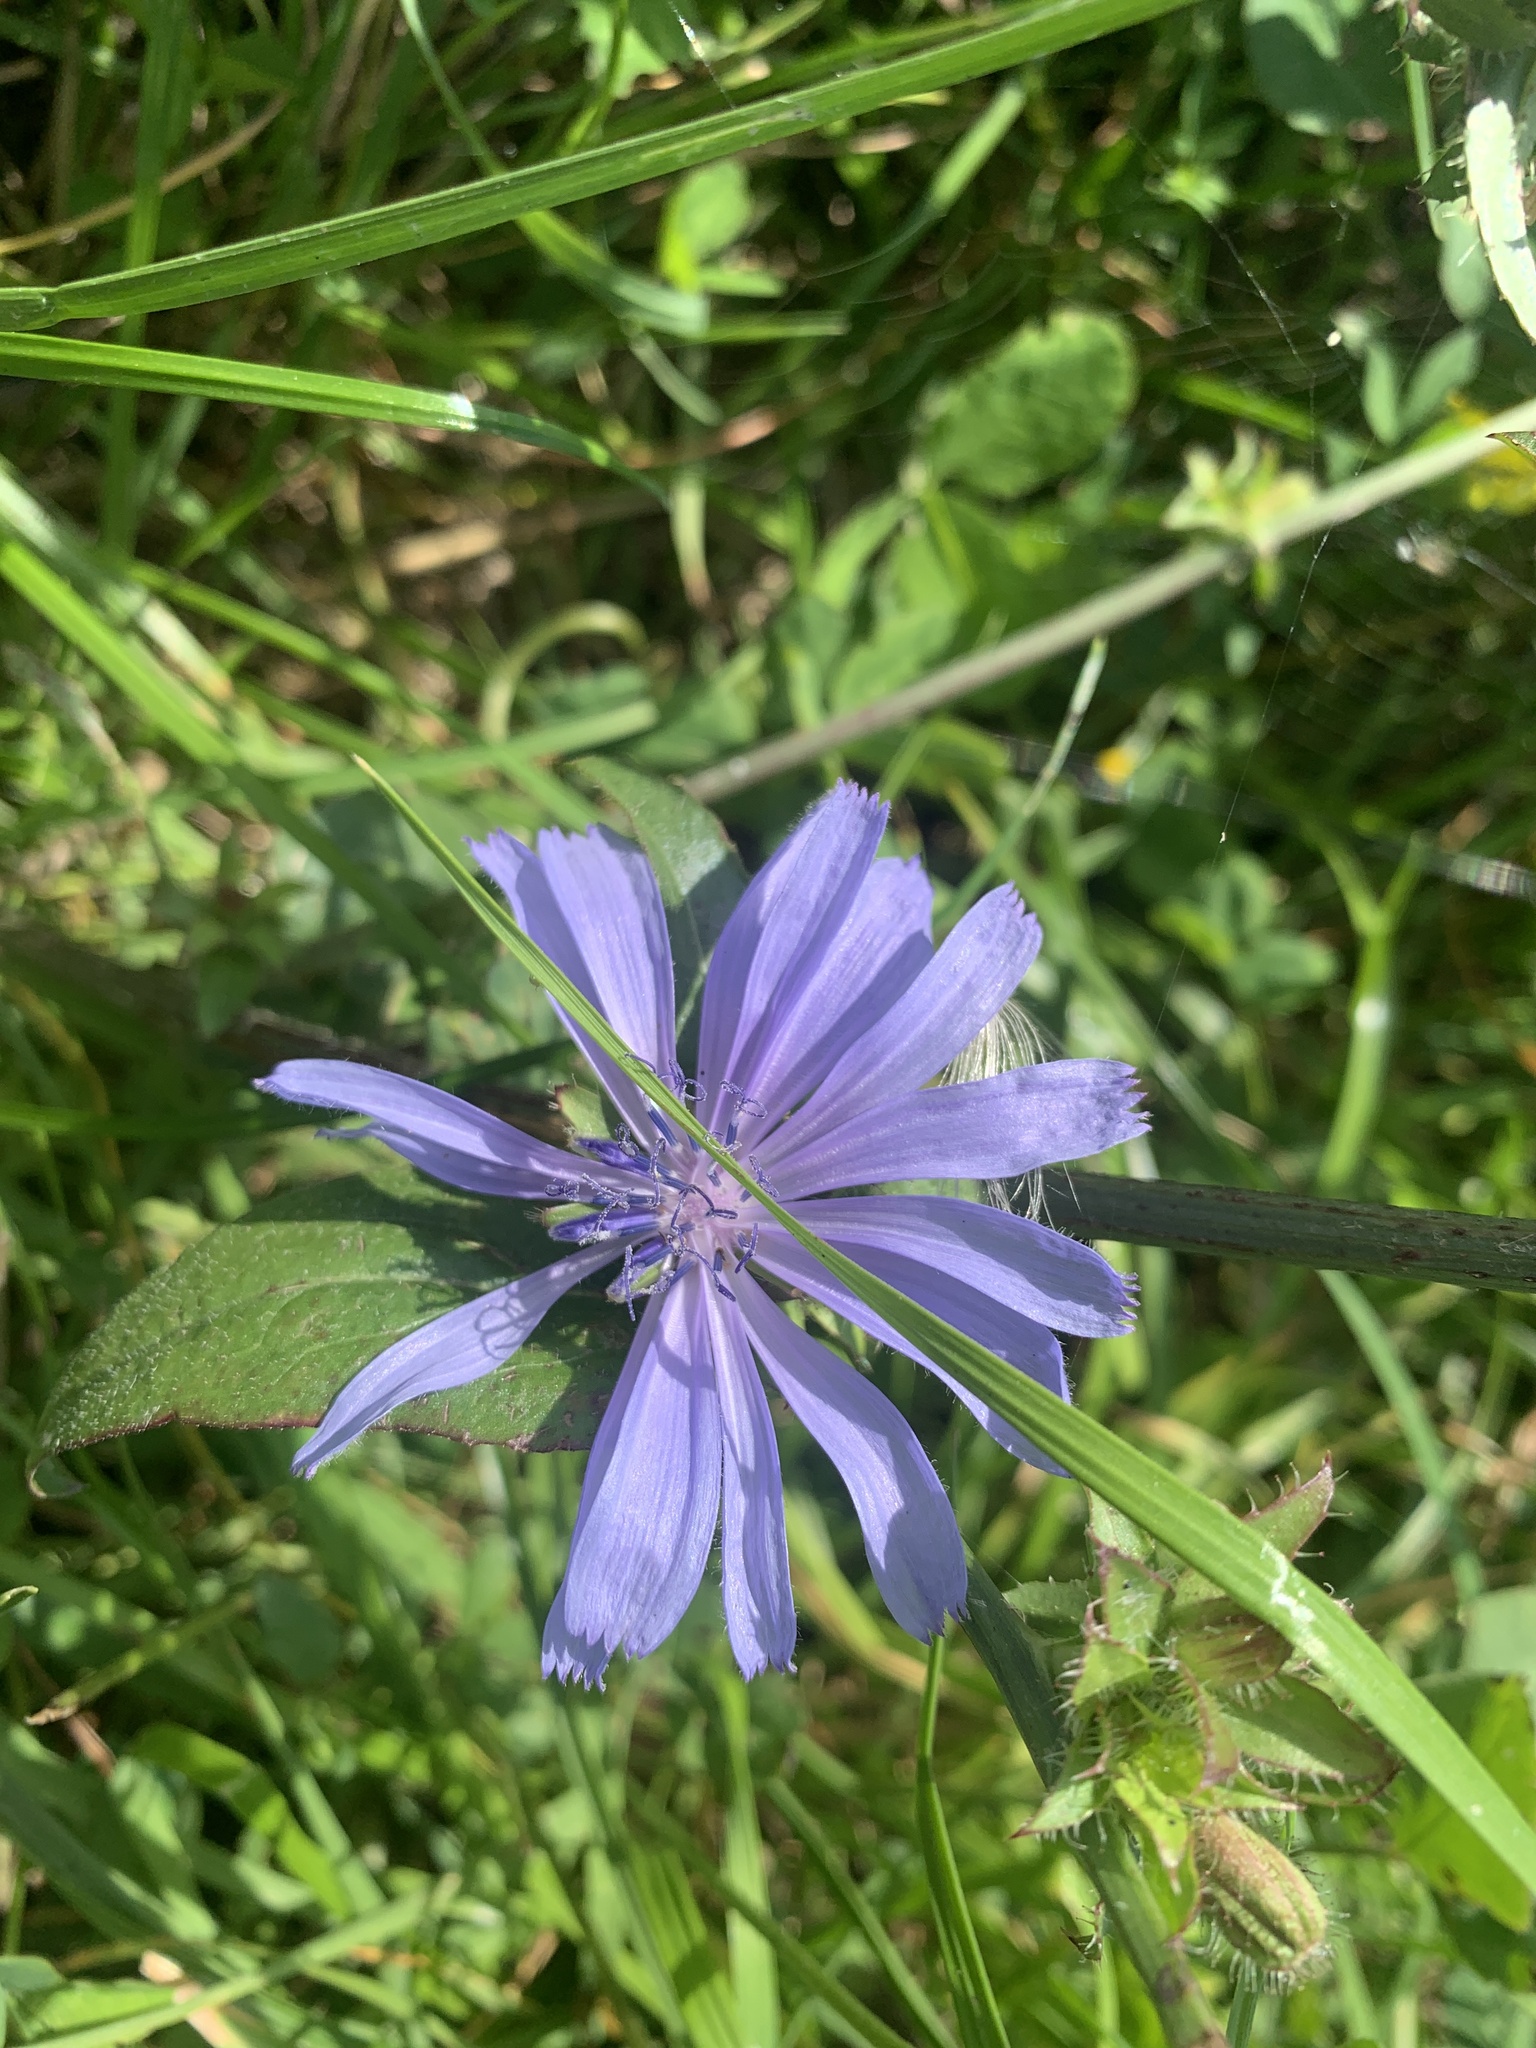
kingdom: Plantae
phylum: Tracheophyta
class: Magnoliopsida
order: Asterales
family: Asteraceae
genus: Cichorium
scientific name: Cichorium intybus
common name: Chicory
